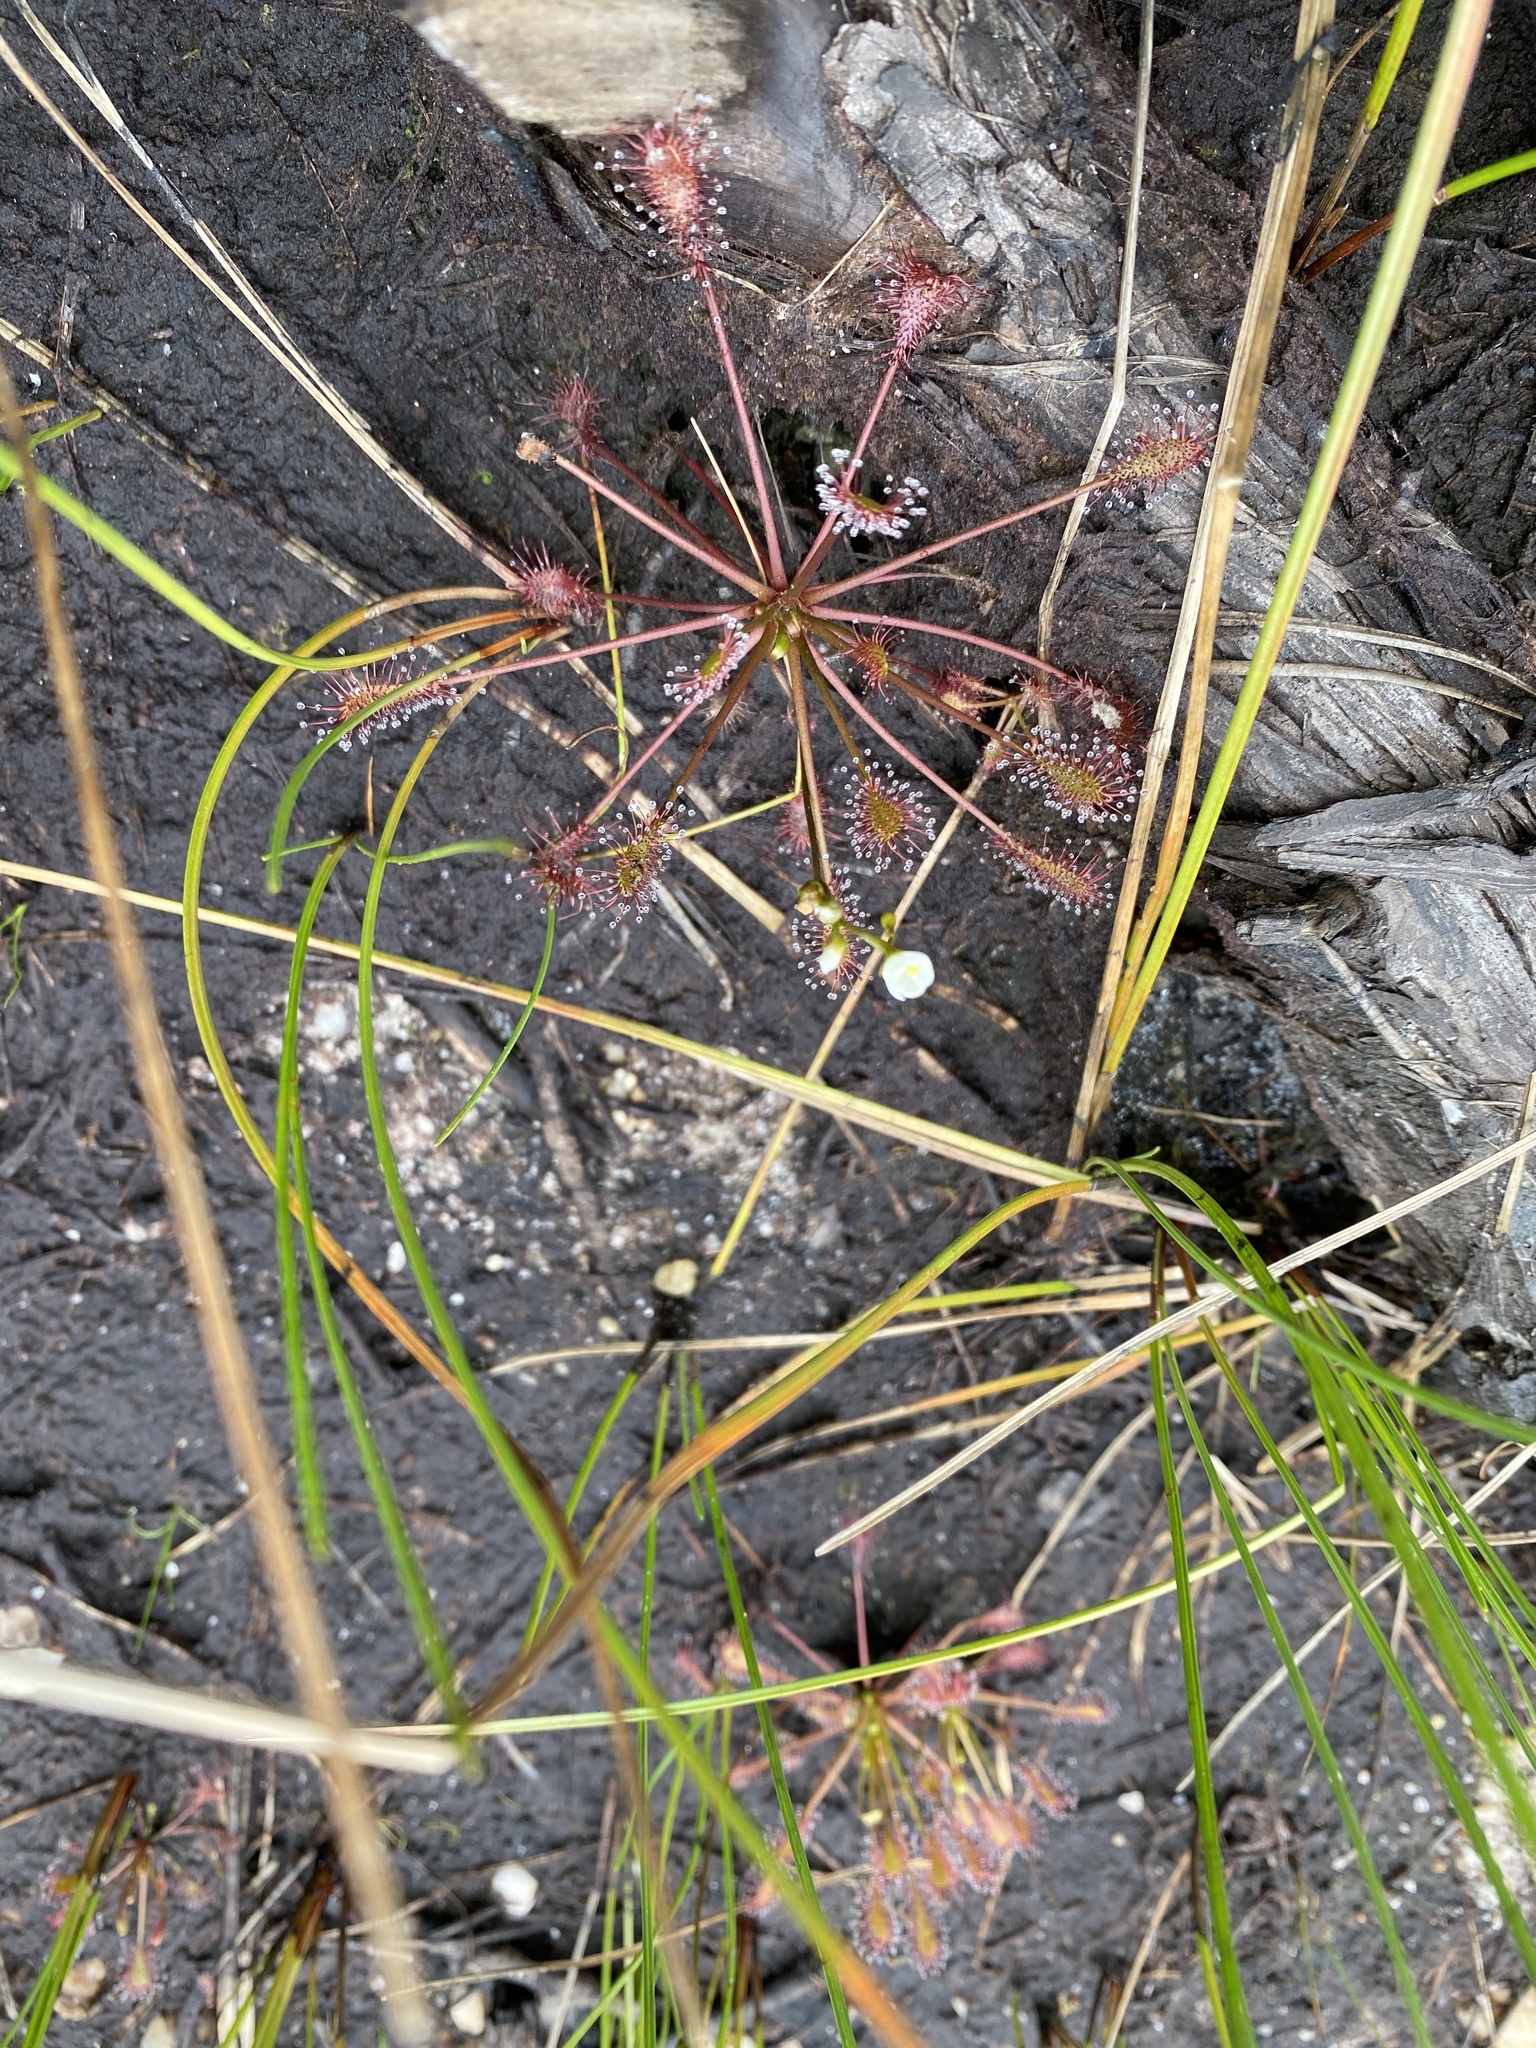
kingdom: Plantae
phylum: Tracheophyta
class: Magnoliopsida
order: Caryophyllales
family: Droseraceae
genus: Drosera
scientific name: Drosera intermedia
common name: Oblong-leaved sundew
